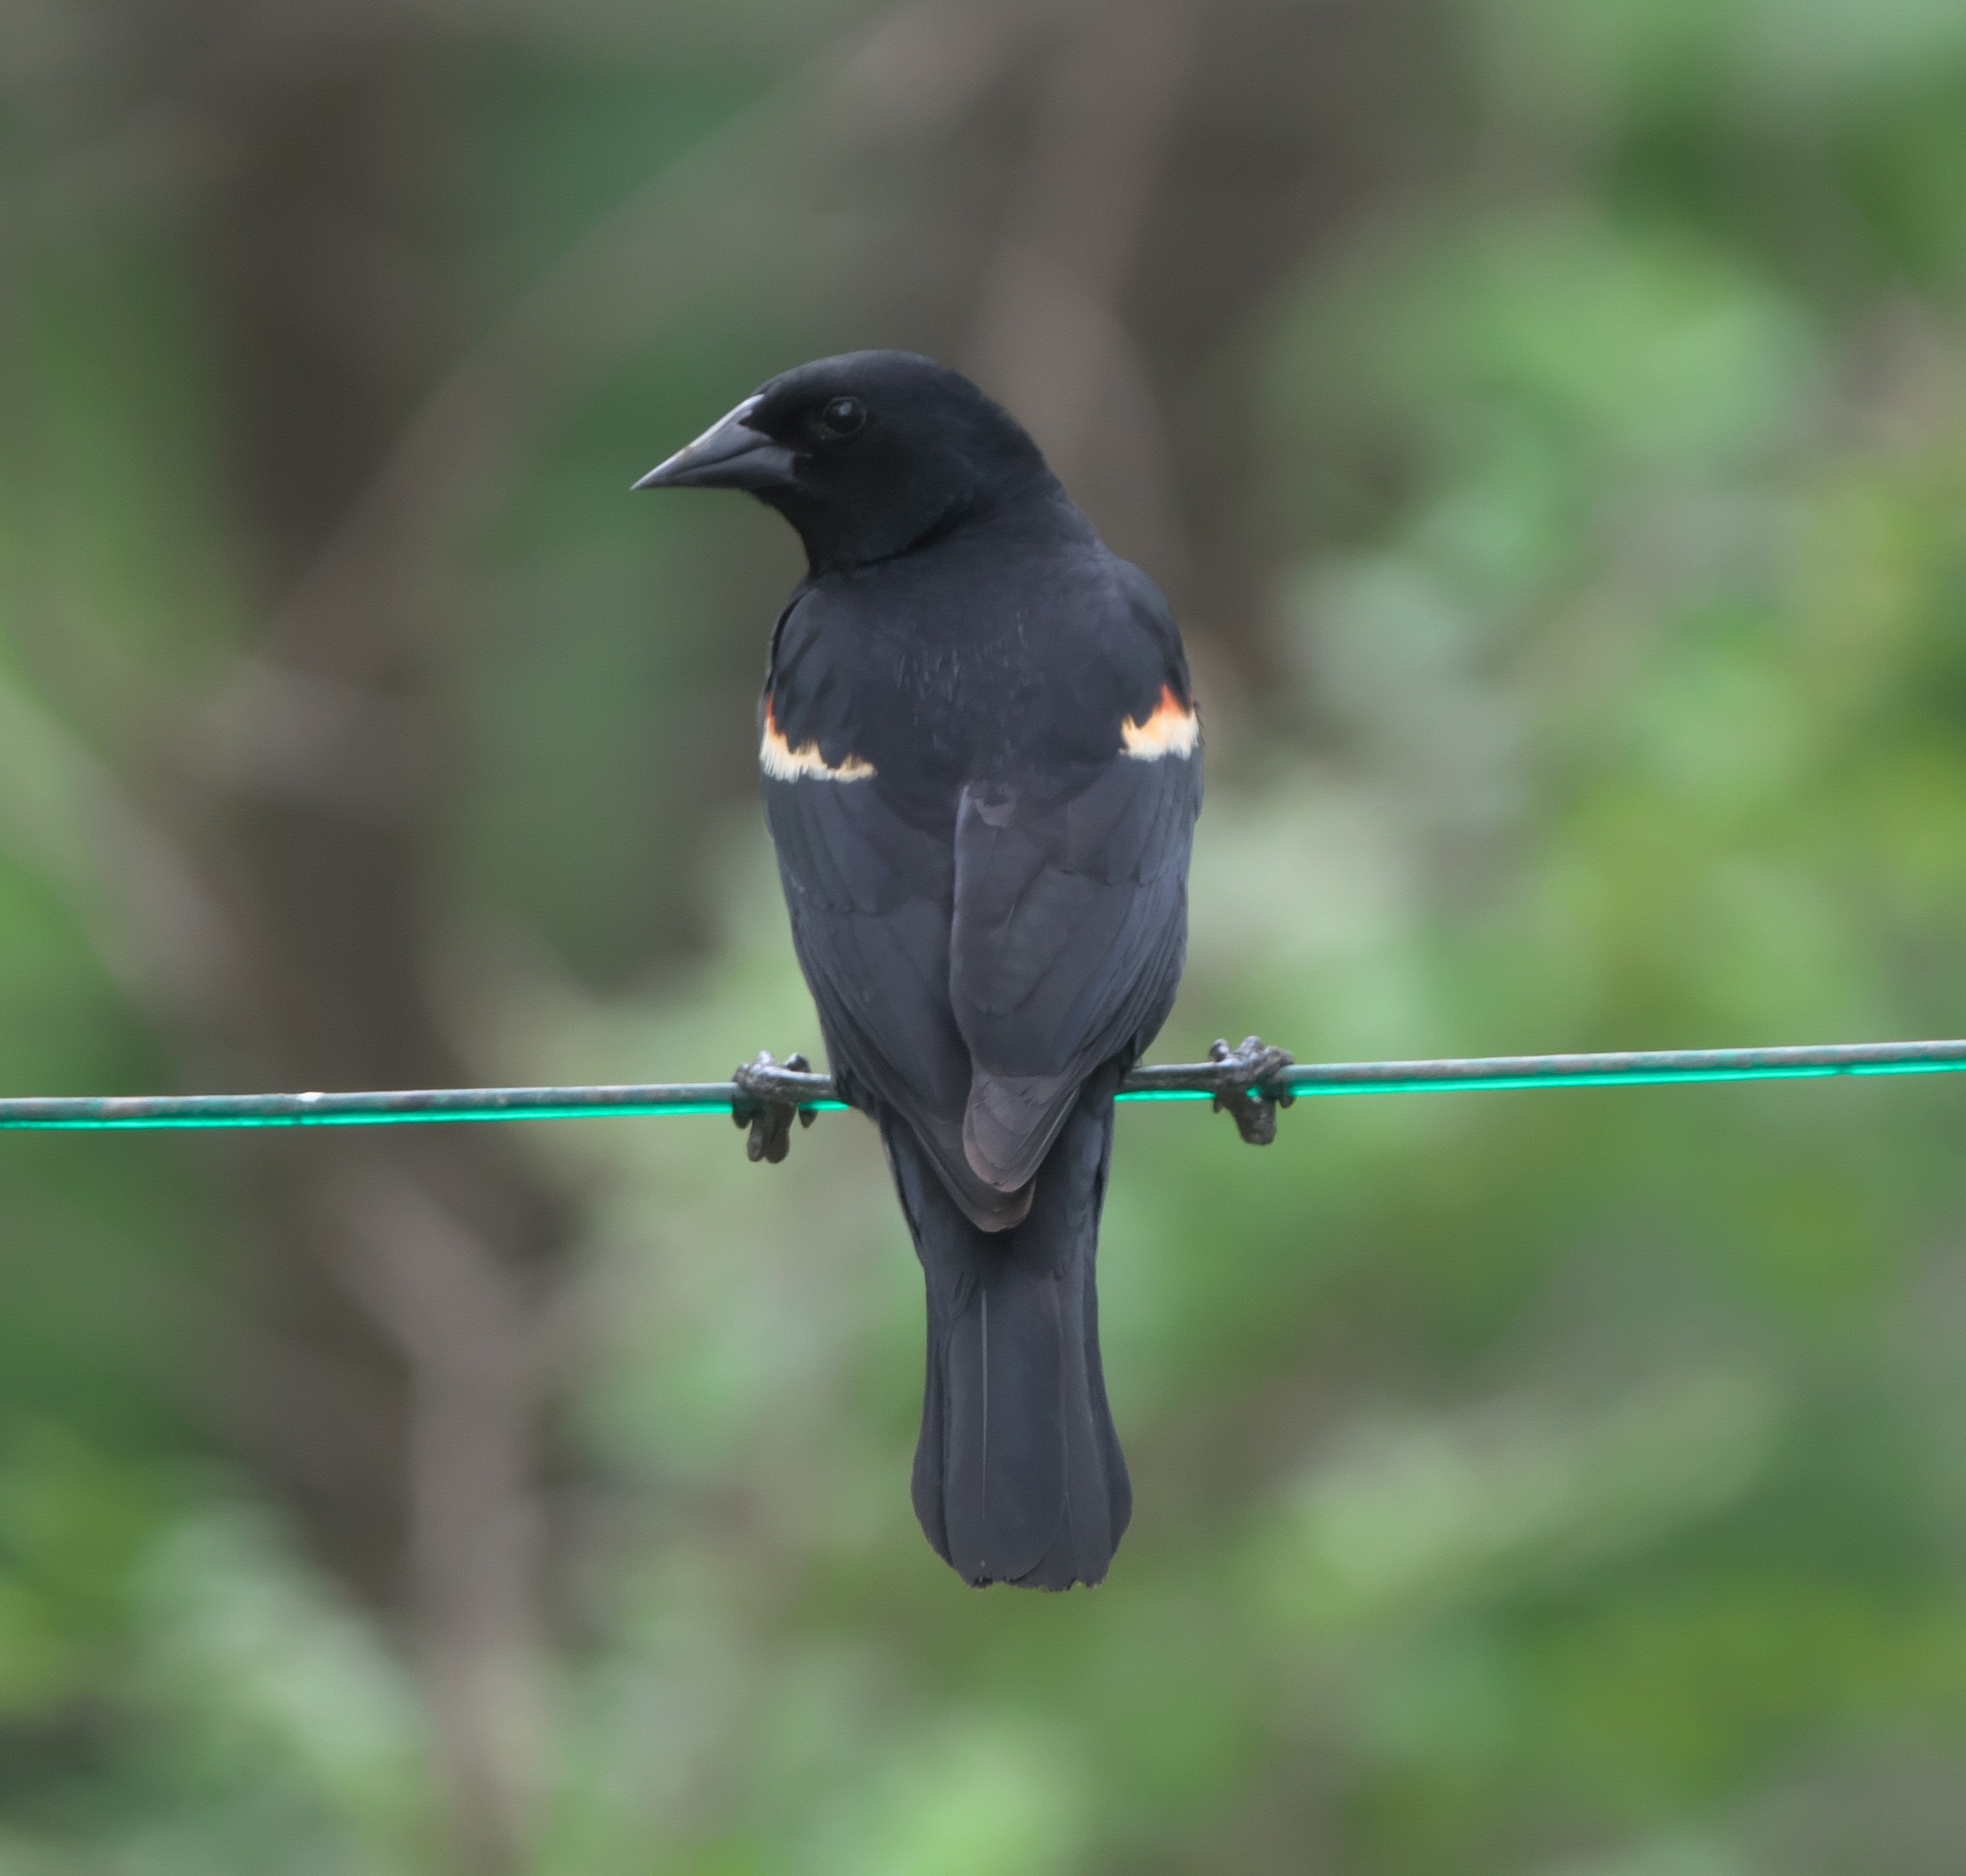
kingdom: Animalia
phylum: Chordata
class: Aves
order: Passeriformes
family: Icteridae
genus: Agelaius
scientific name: Agelaius phoeniceus
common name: Red-winged blackbird
